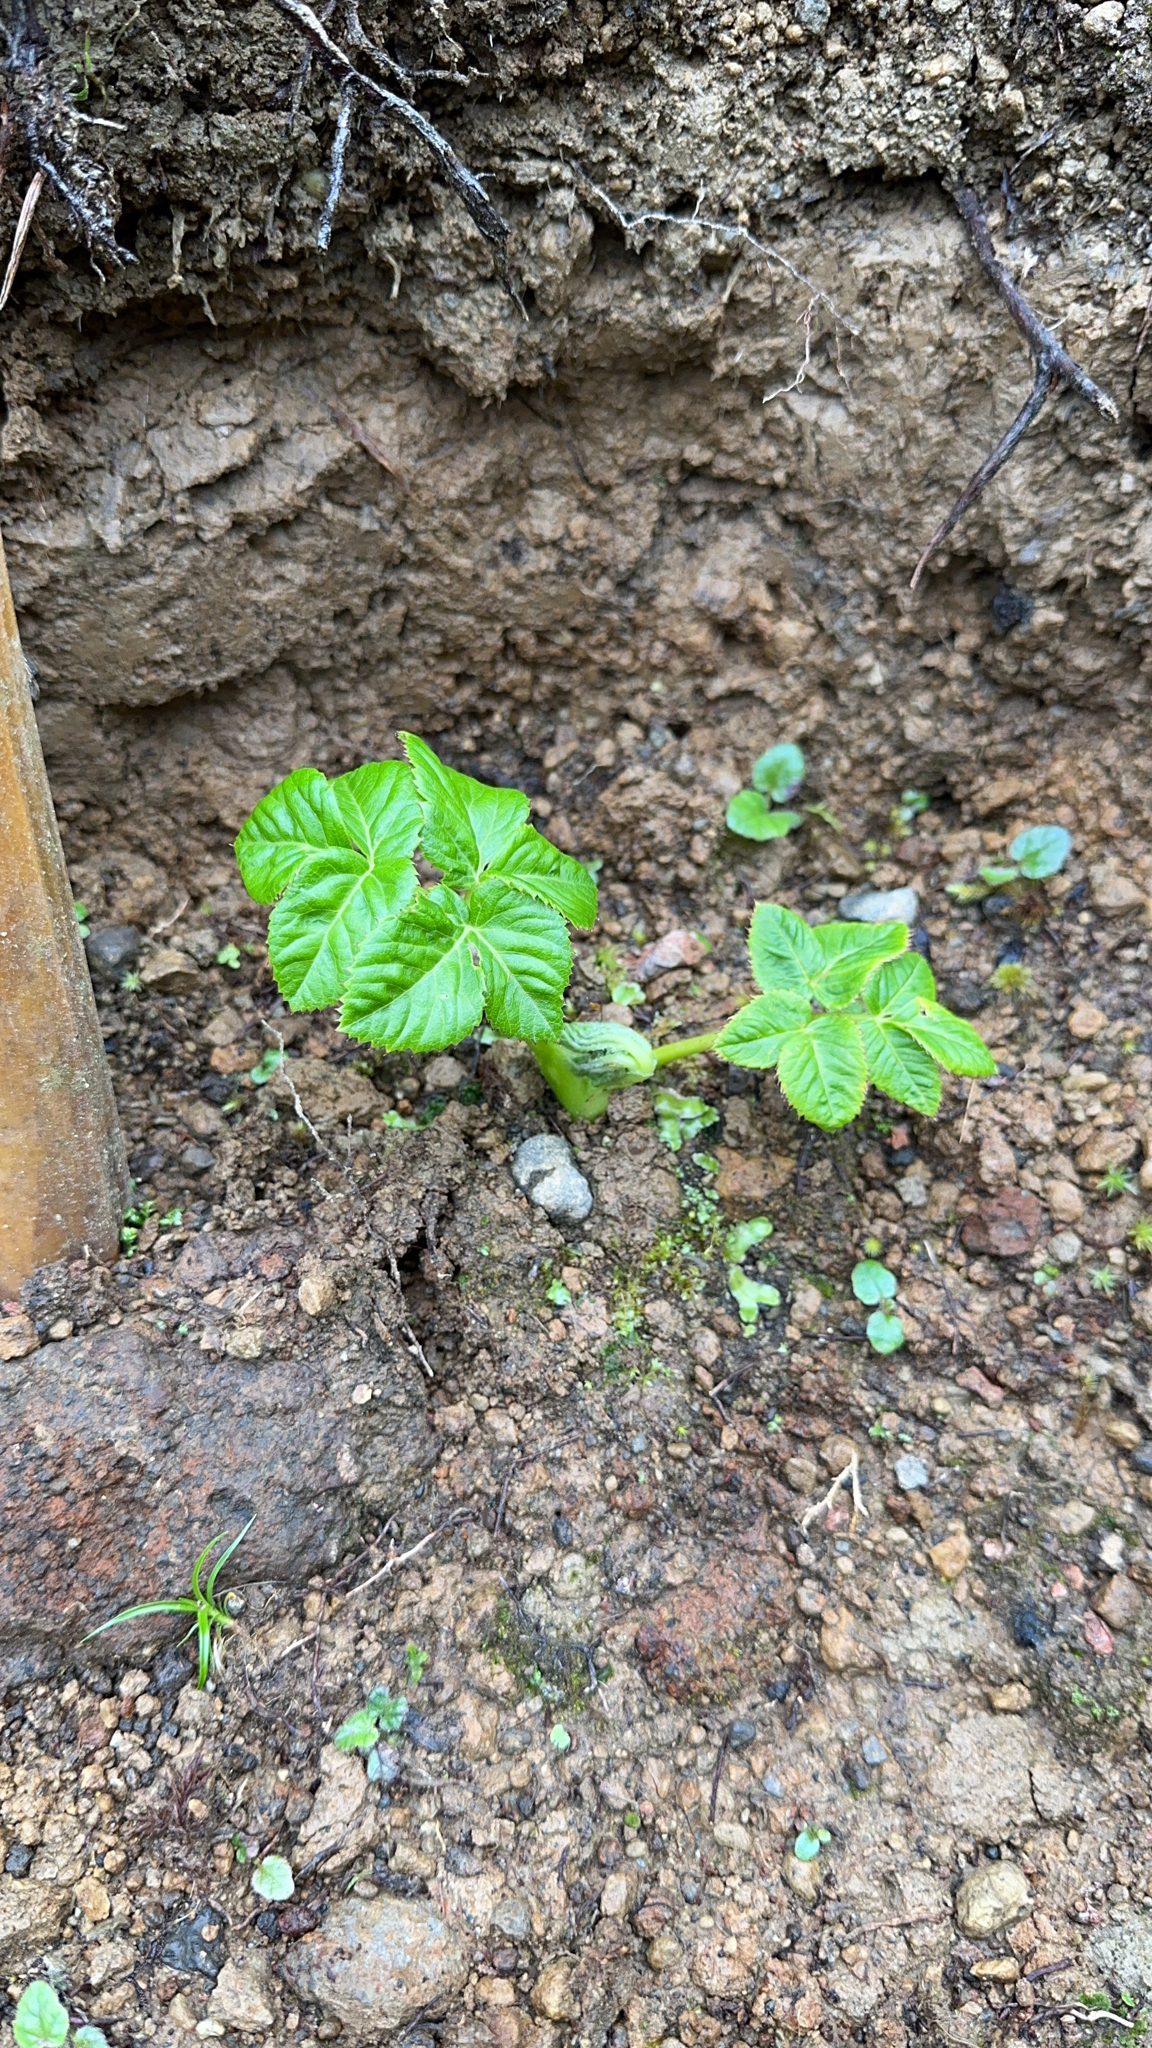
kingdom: Plantae
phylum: Tracheophyta
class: Magnoliopsida
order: Apiales
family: Apiaceae
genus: Angelica
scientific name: Angelica lignescens
